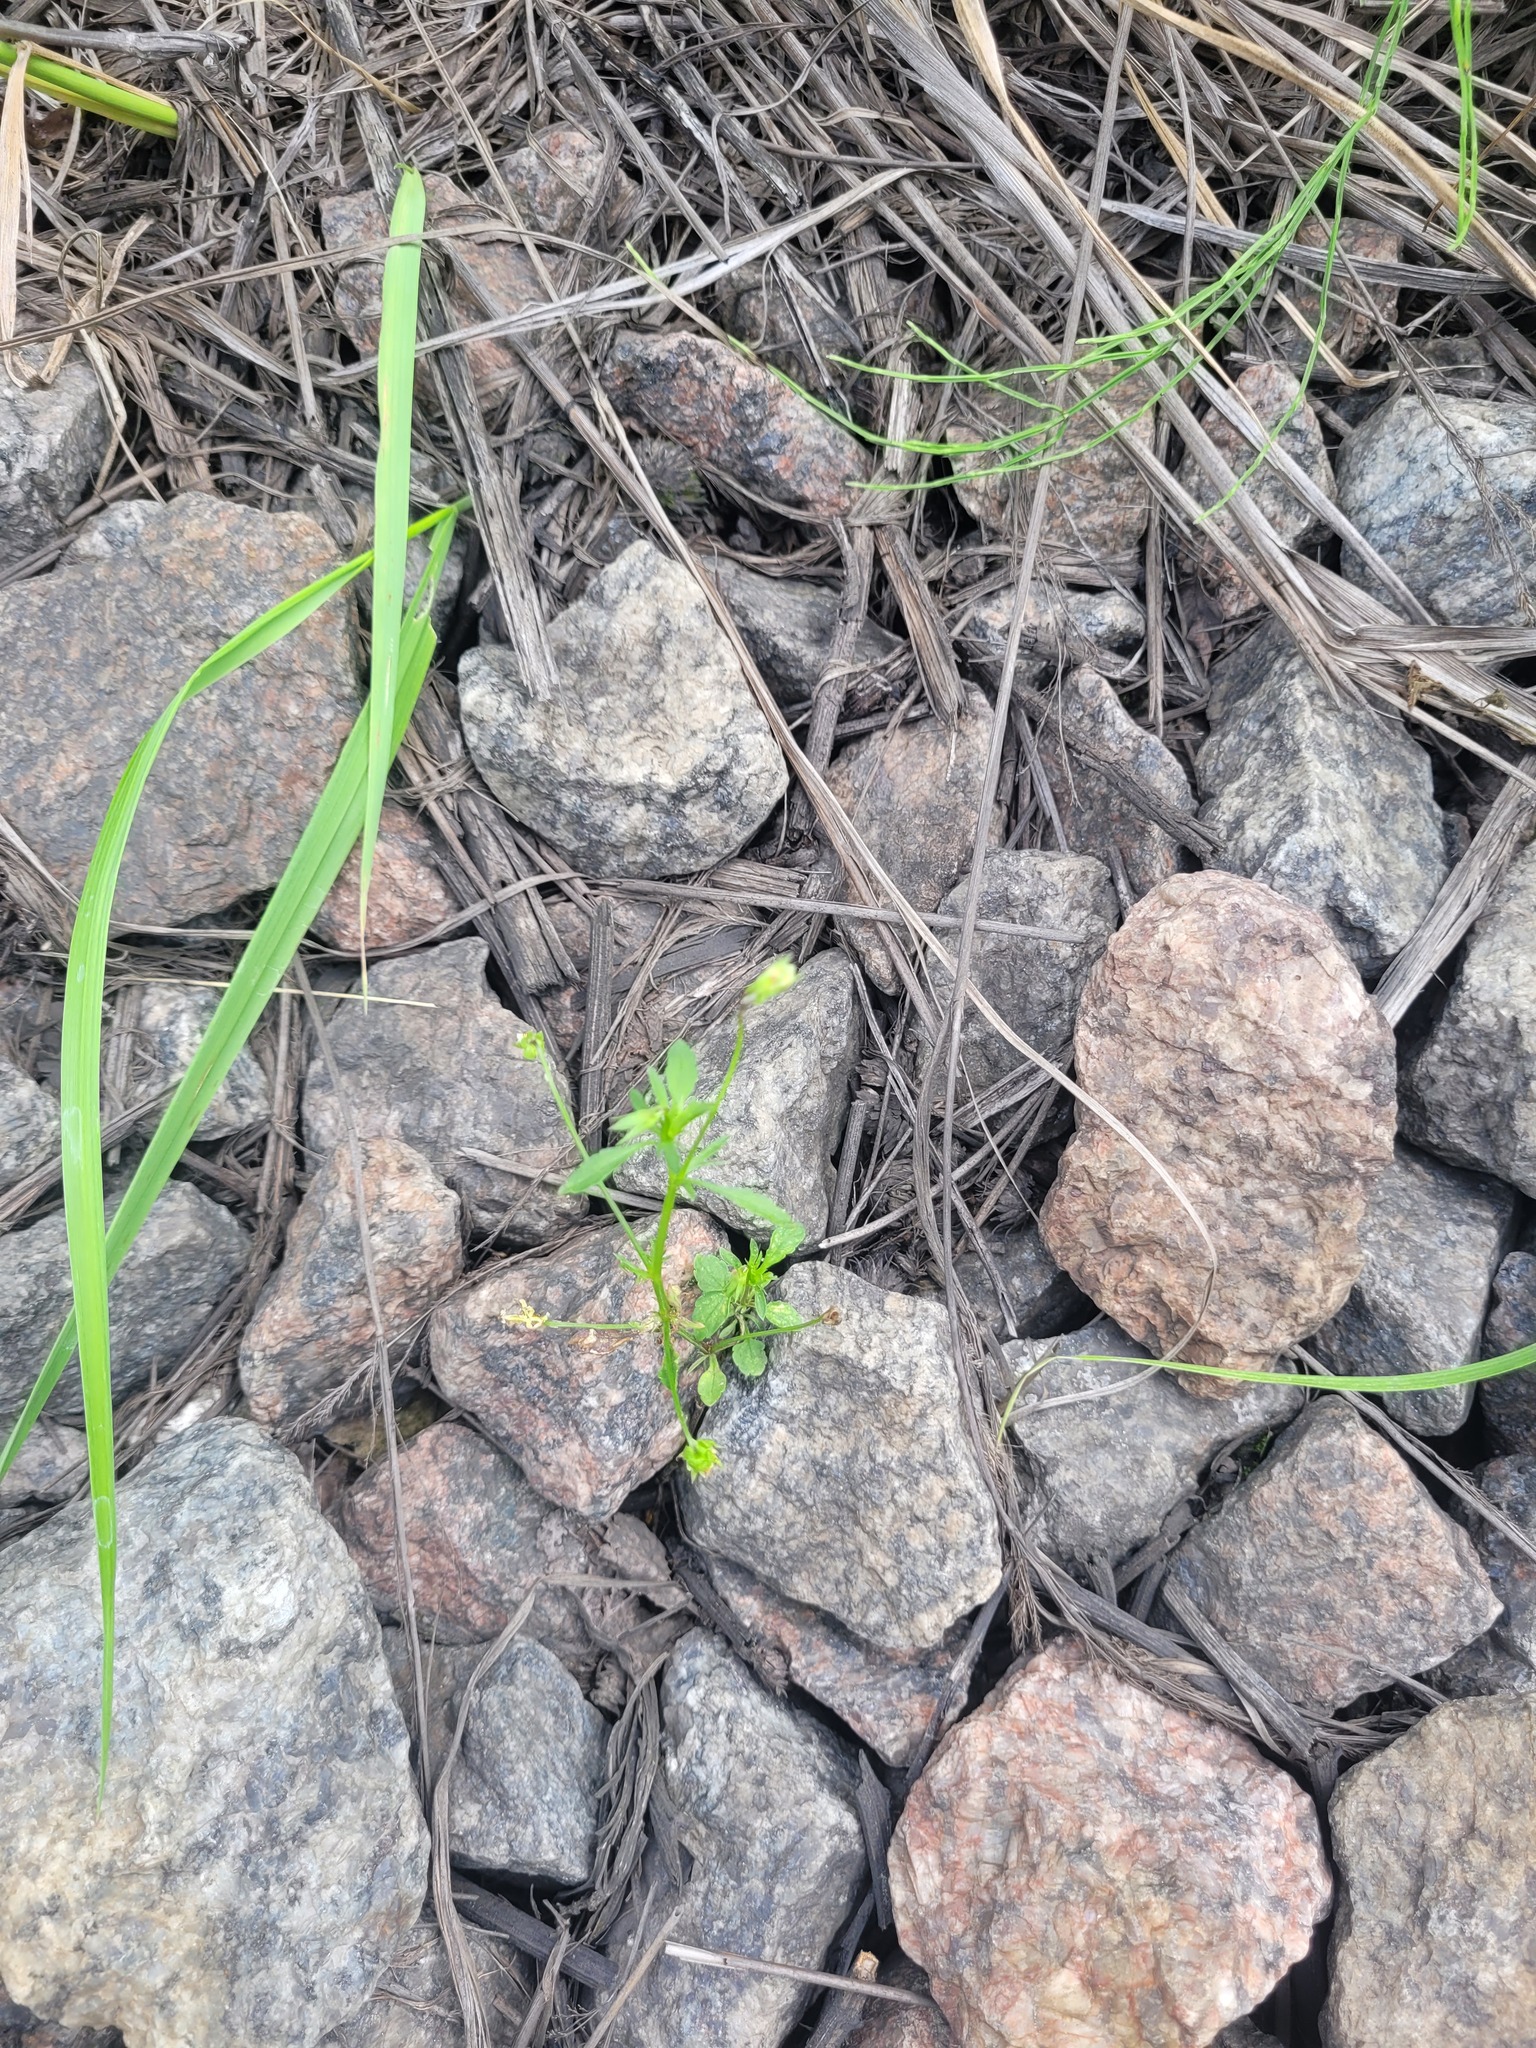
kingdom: Plantae
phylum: Tracheophyta
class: Magnoliopsida
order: Malpighiales
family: Violaceae
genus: Viola
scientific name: Viola arvensis
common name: Field pansy
